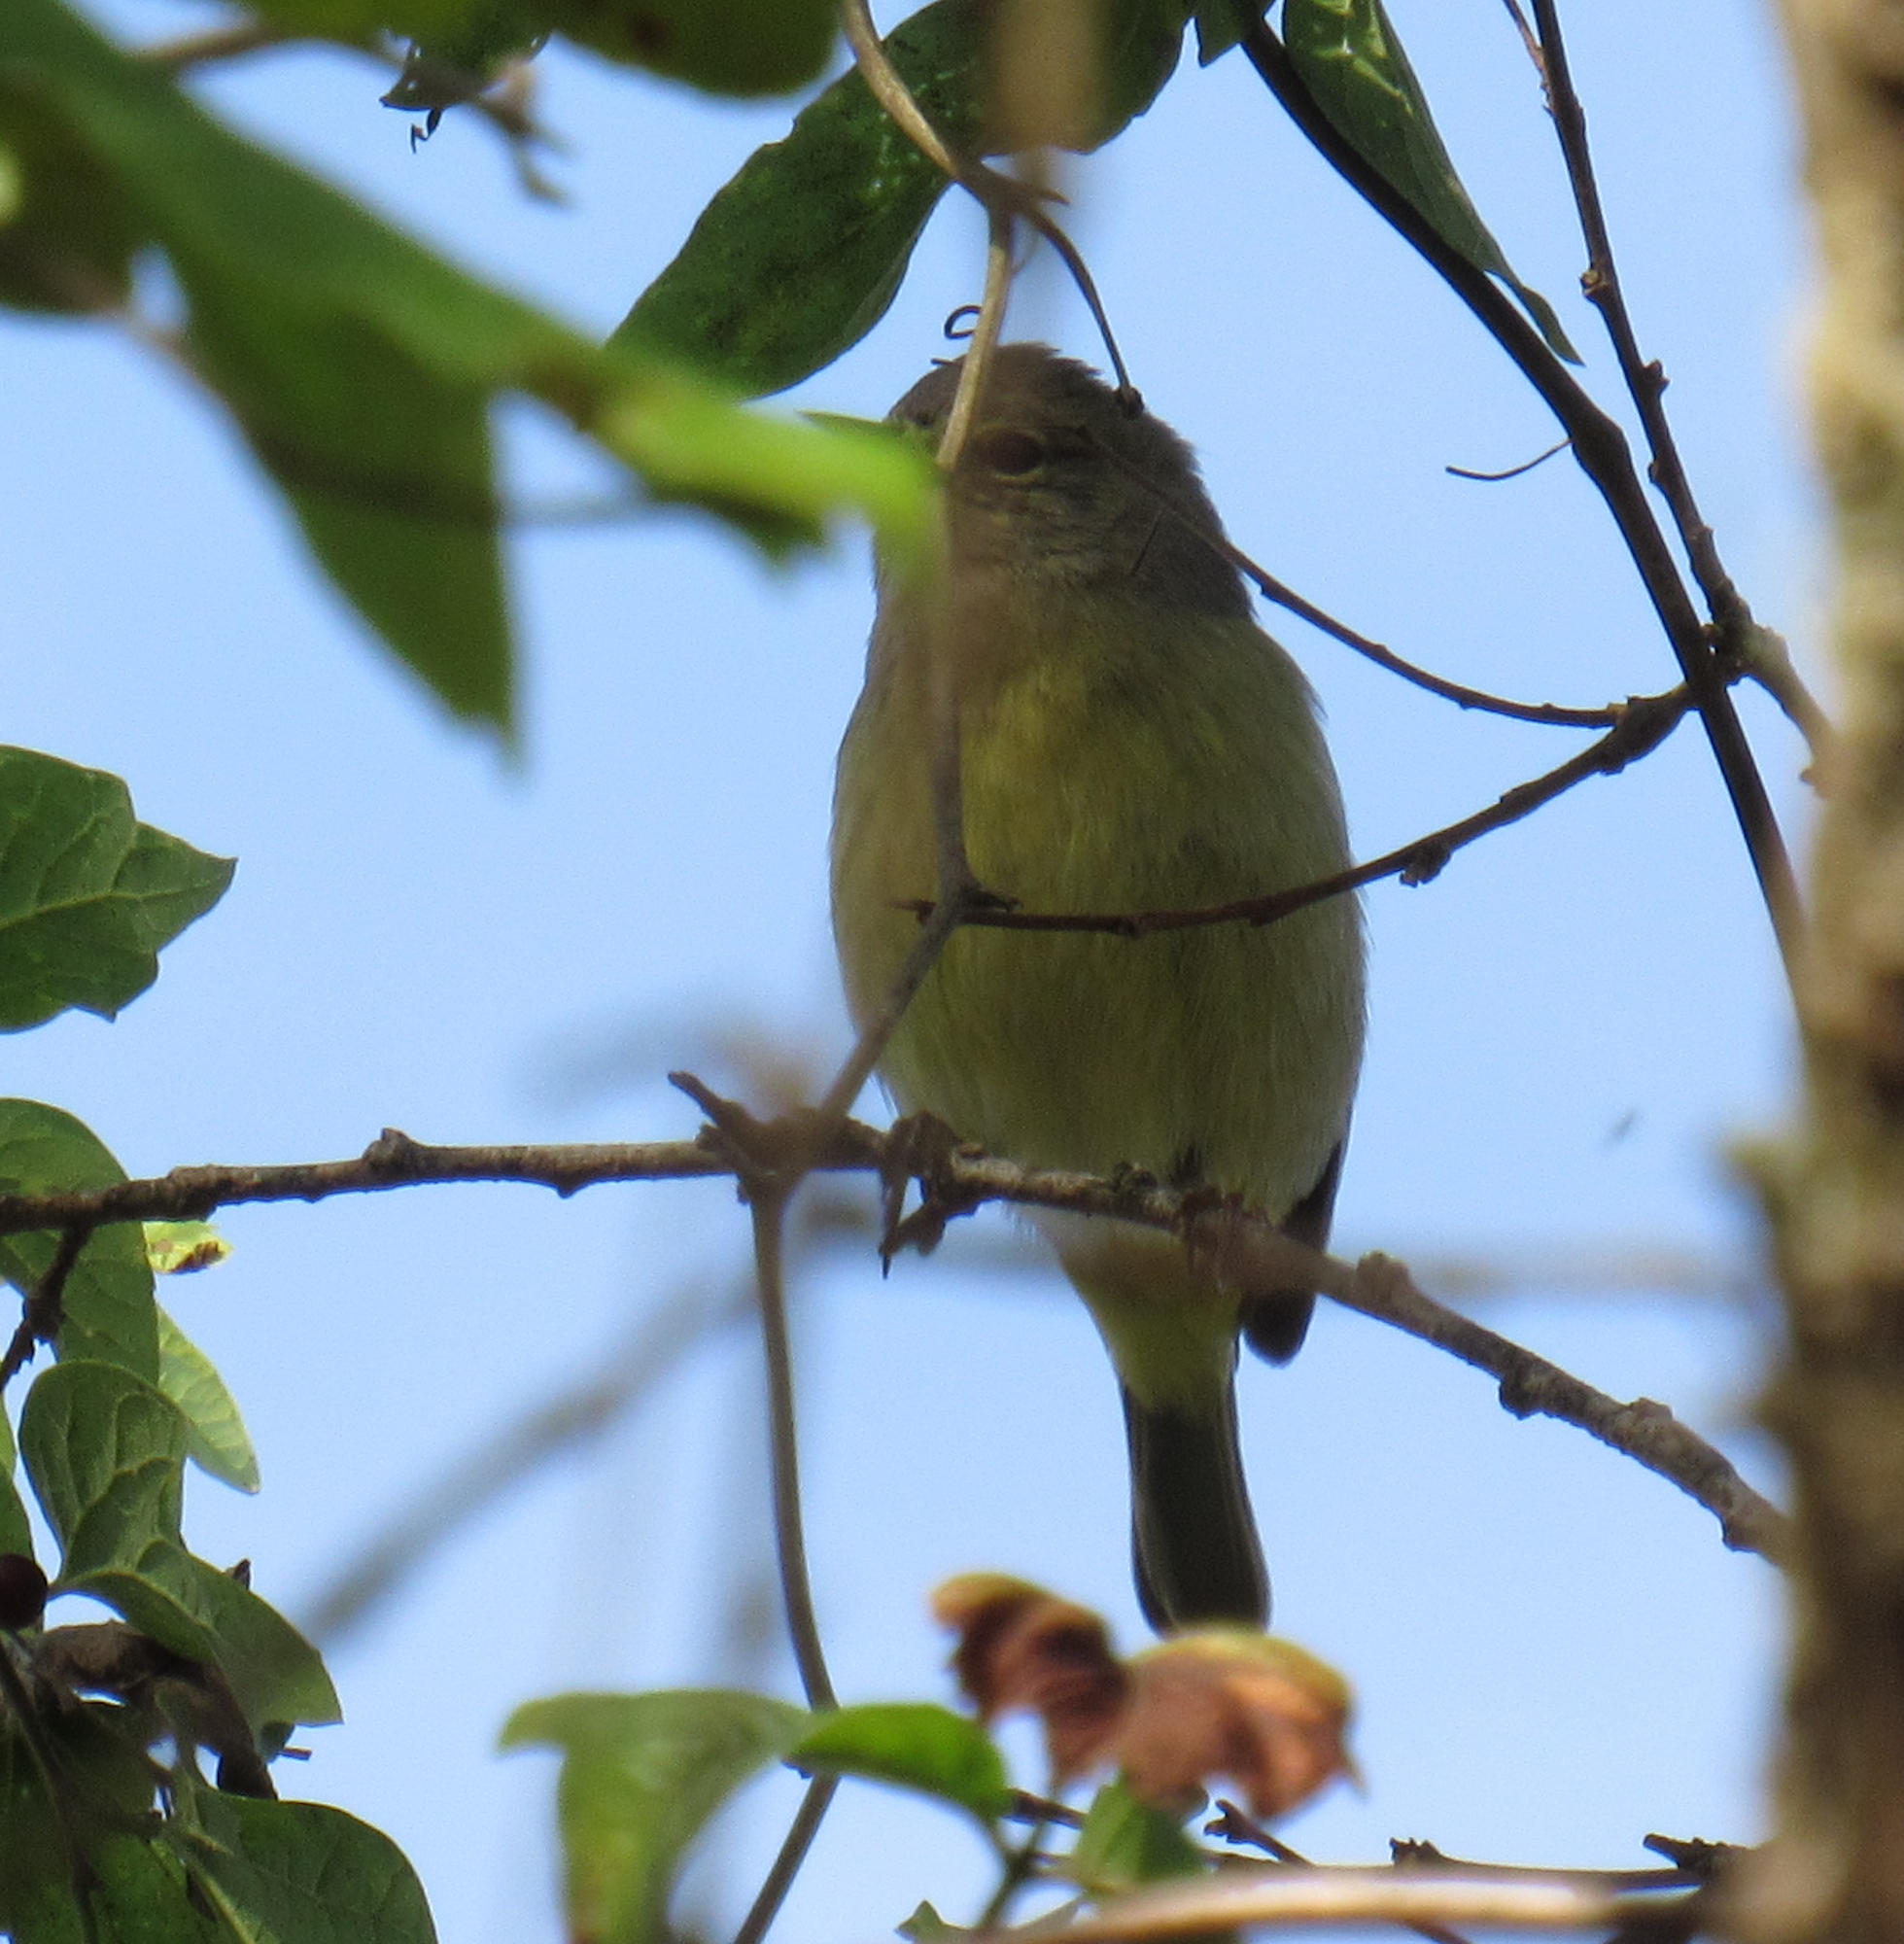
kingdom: Animalia
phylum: Chordata
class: Aves
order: Passeriformes
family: Parulidae
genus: Leiothlypis
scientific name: Leiothlypis celata
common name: Orange-crowned warbler
